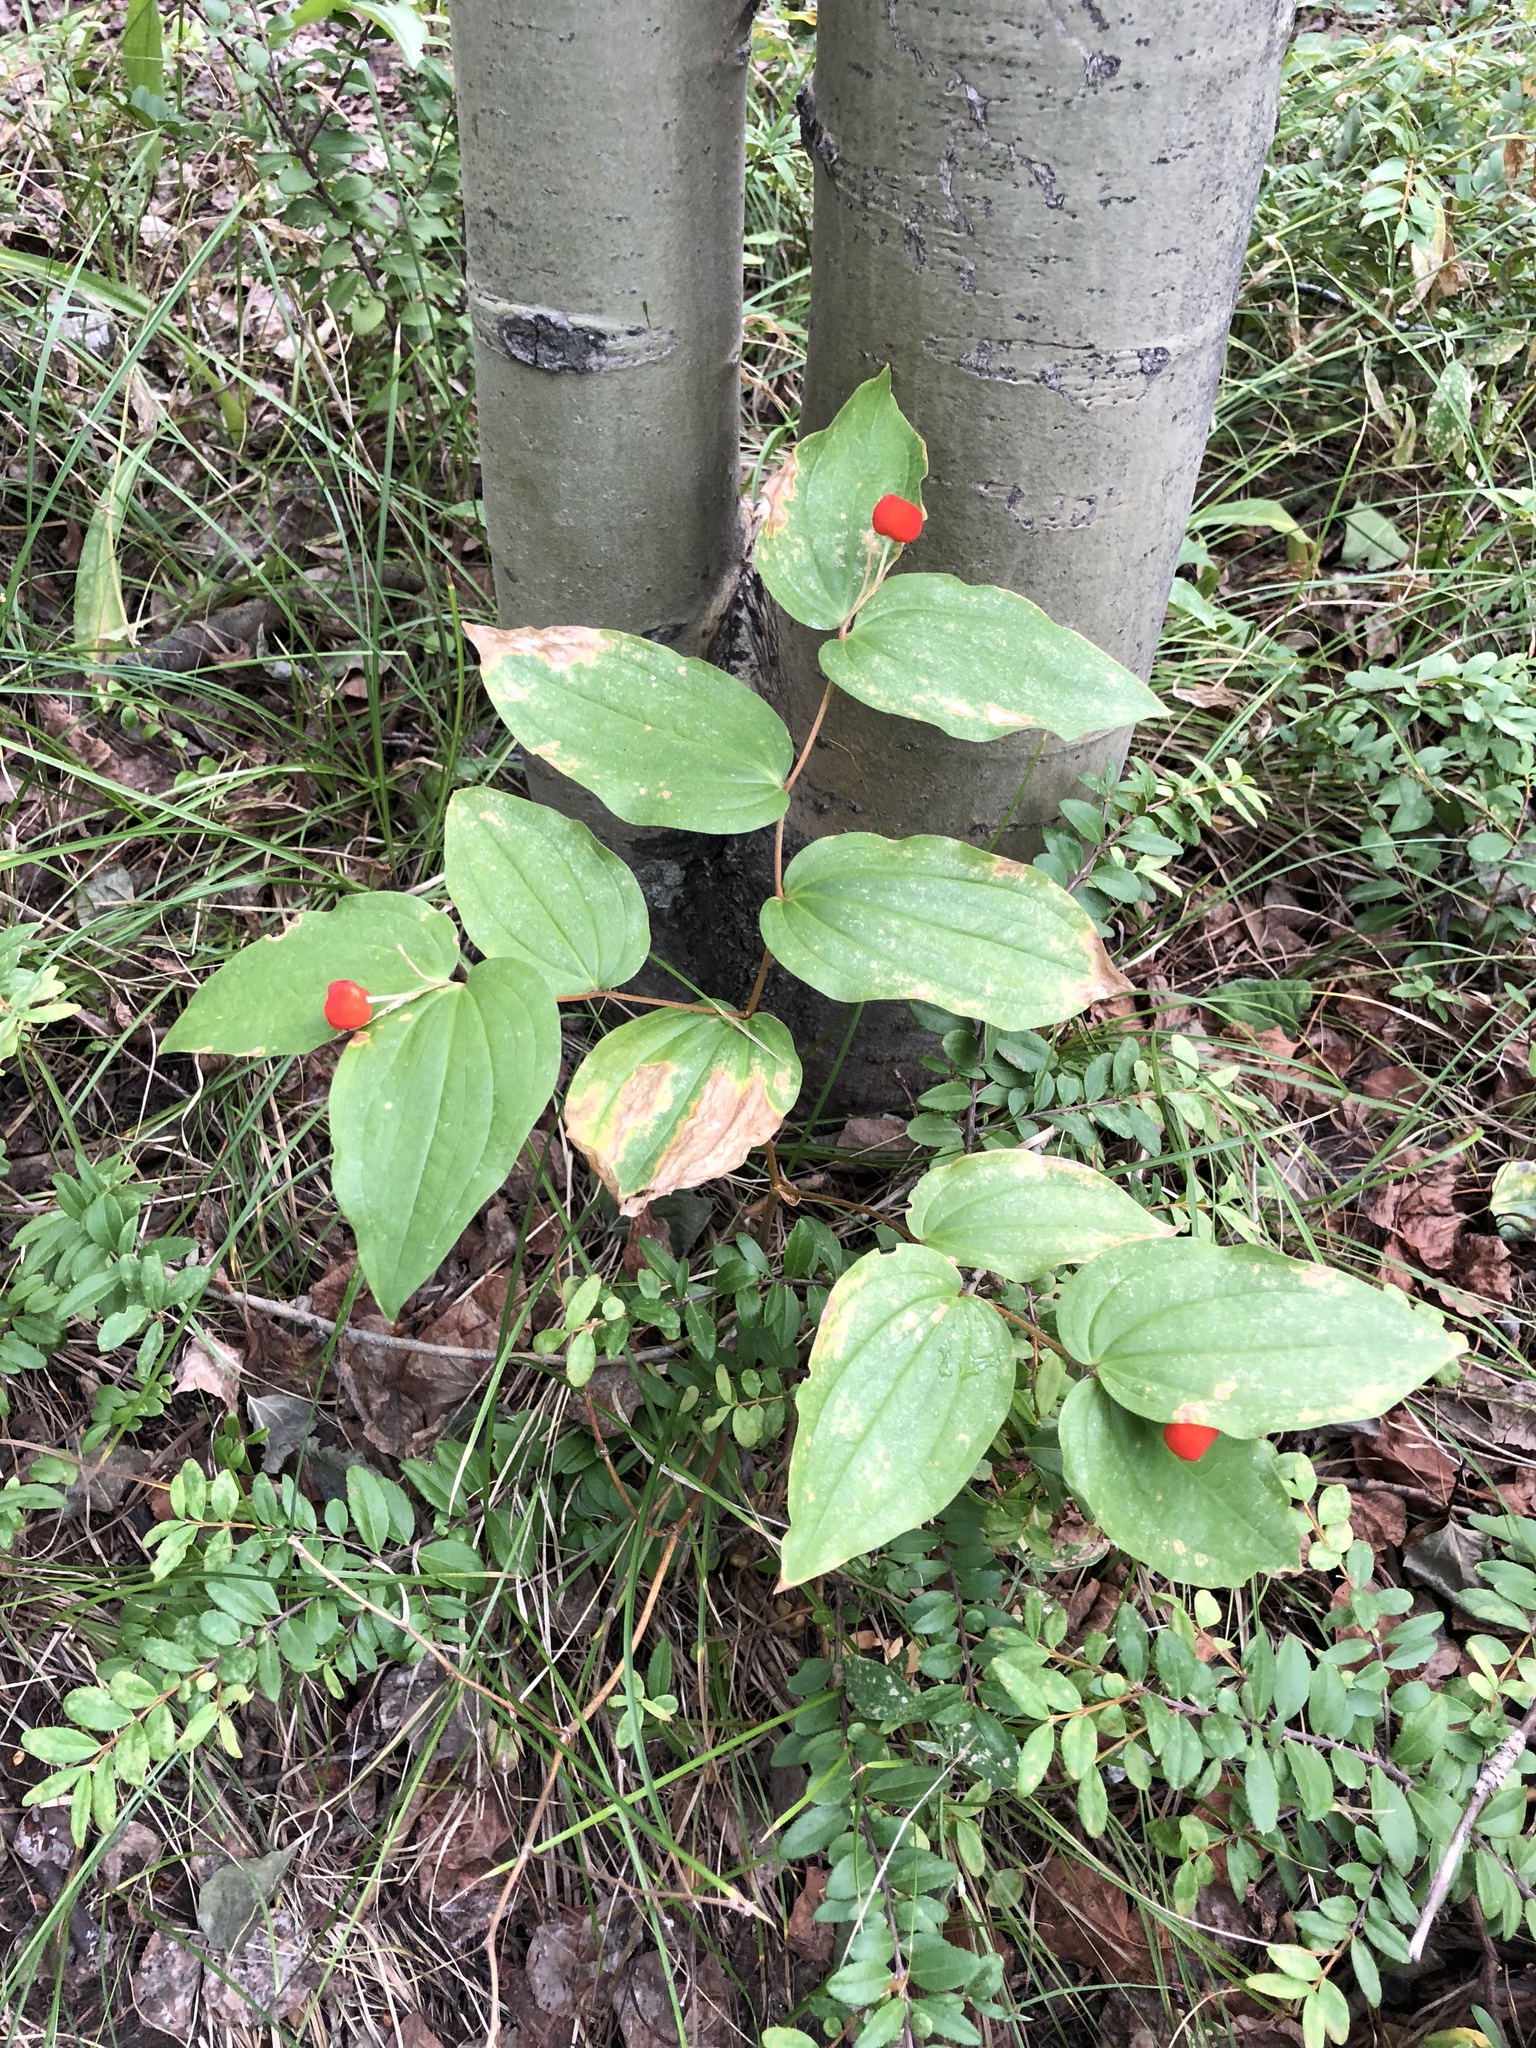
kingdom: Plantae
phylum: Tracheophyta
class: Liliopsida
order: Liliales
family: Liliaceae
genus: Prosartes
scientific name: Prosartes trachycarpa
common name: Rough-fruit fairy-bells
